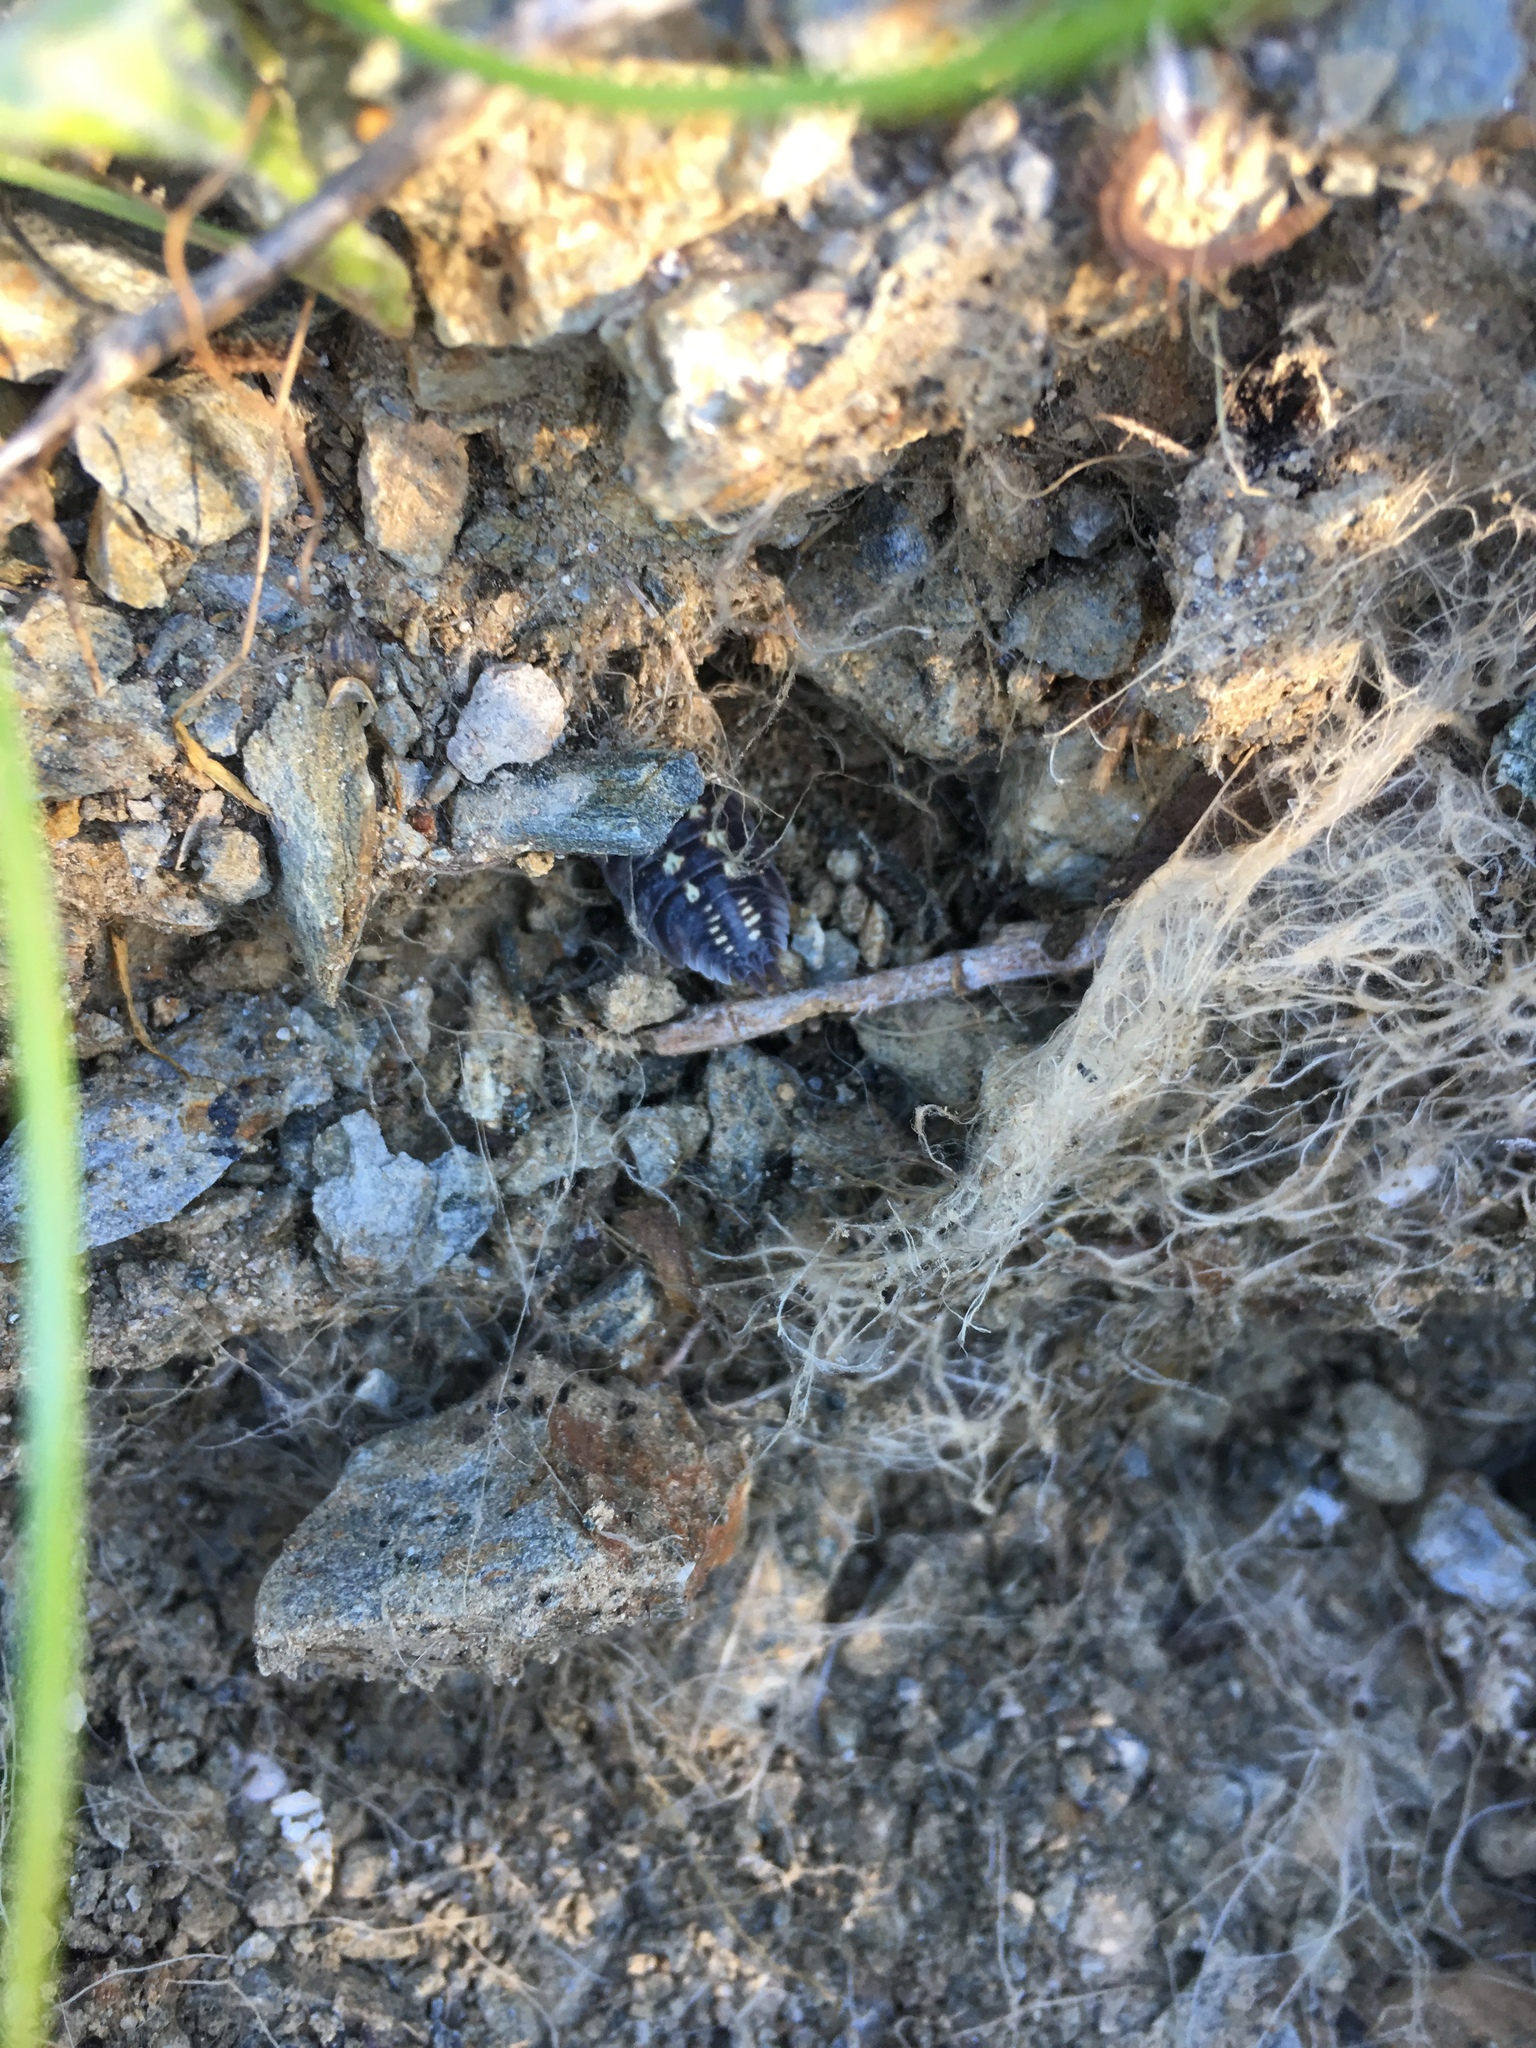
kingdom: Animalia
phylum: Arthropoda
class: Malacostraca
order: Isopoda
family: Porcellionidae
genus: Porcellio
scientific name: Porcellio ornatus
